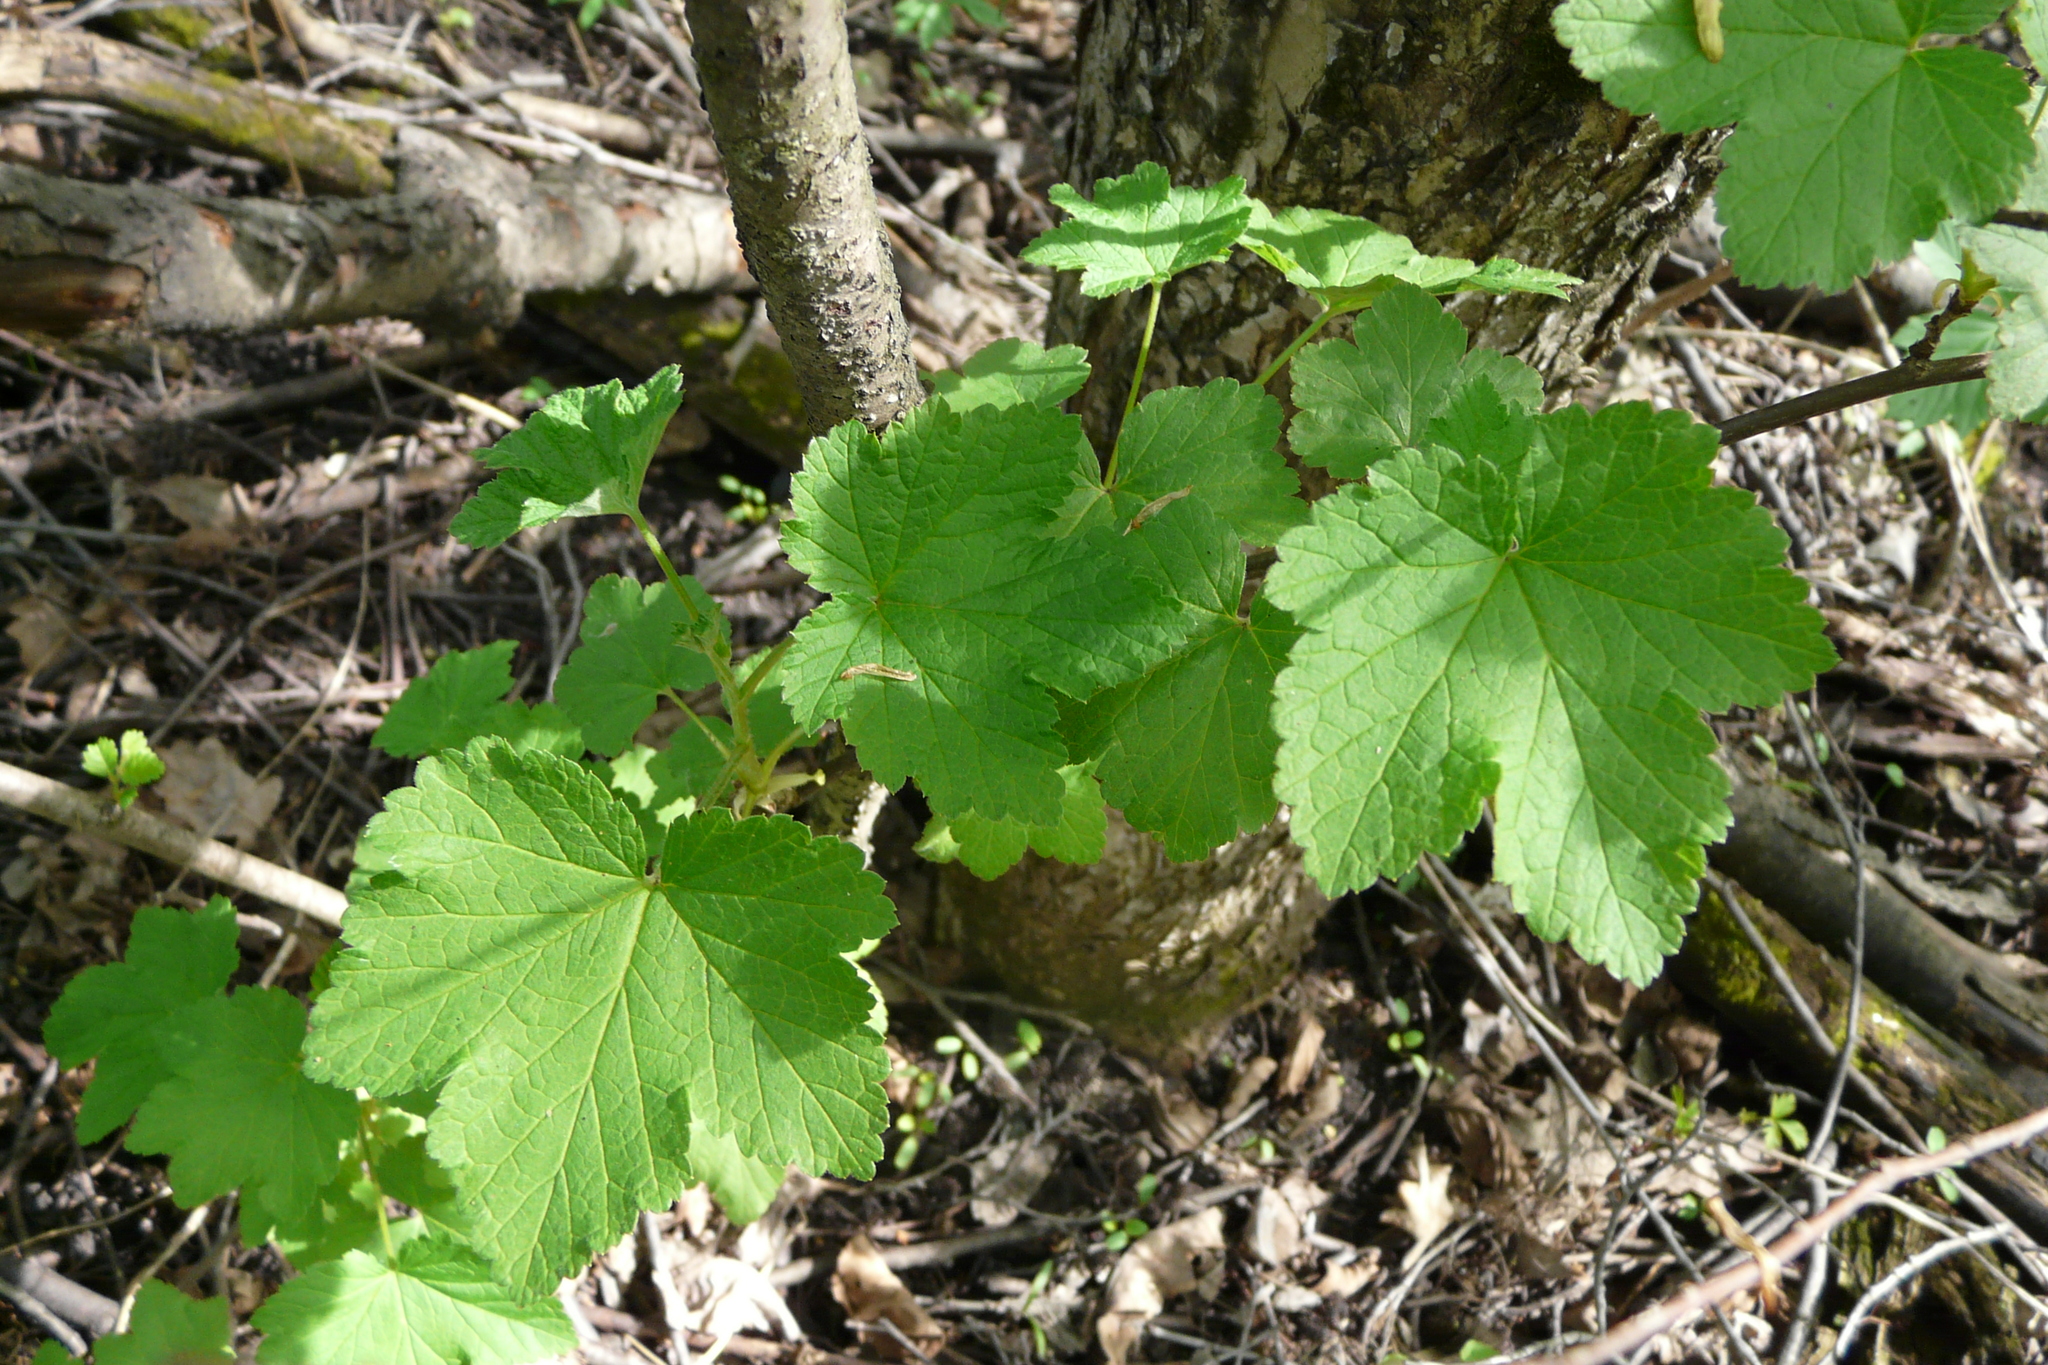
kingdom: Plantae
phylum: Tracheophyta
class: Magnoliopsida
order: Saxifragales
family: Grossulariaceae
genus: Ribes
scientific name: Ribes nigrum
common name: Black currant
